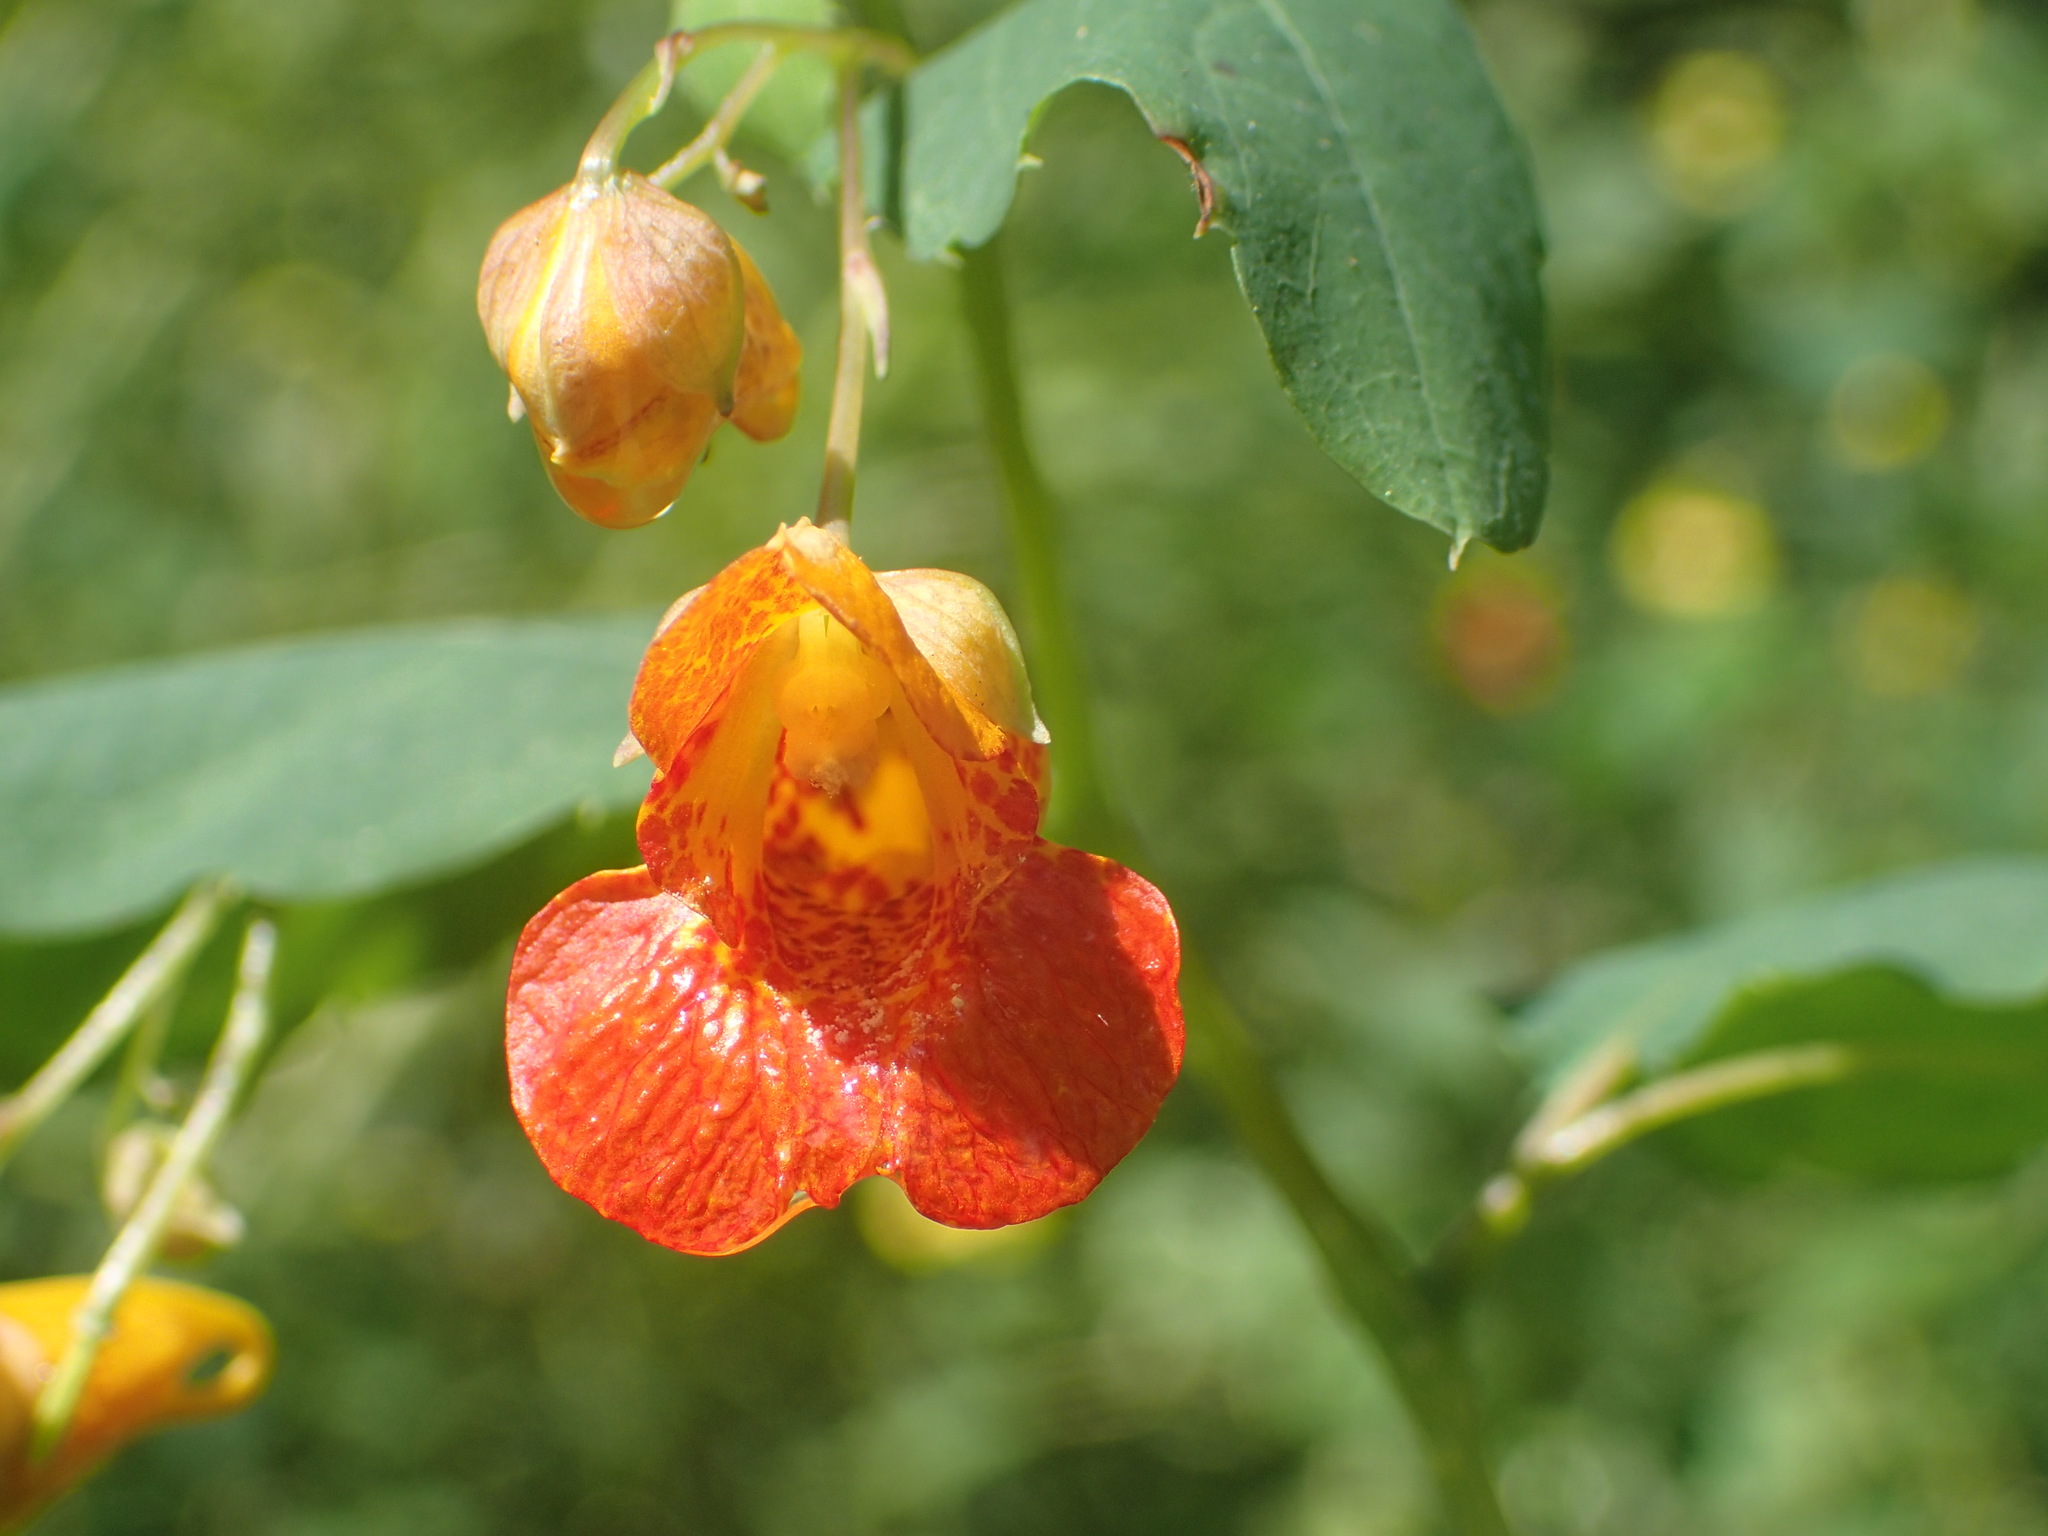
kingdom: Plantae
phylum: Tracheophyta
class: Magnoliopsida
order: Ericales
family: Balsaminaceae
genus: Impatiens
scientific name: Impatiens capensis
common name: Orange balsam
